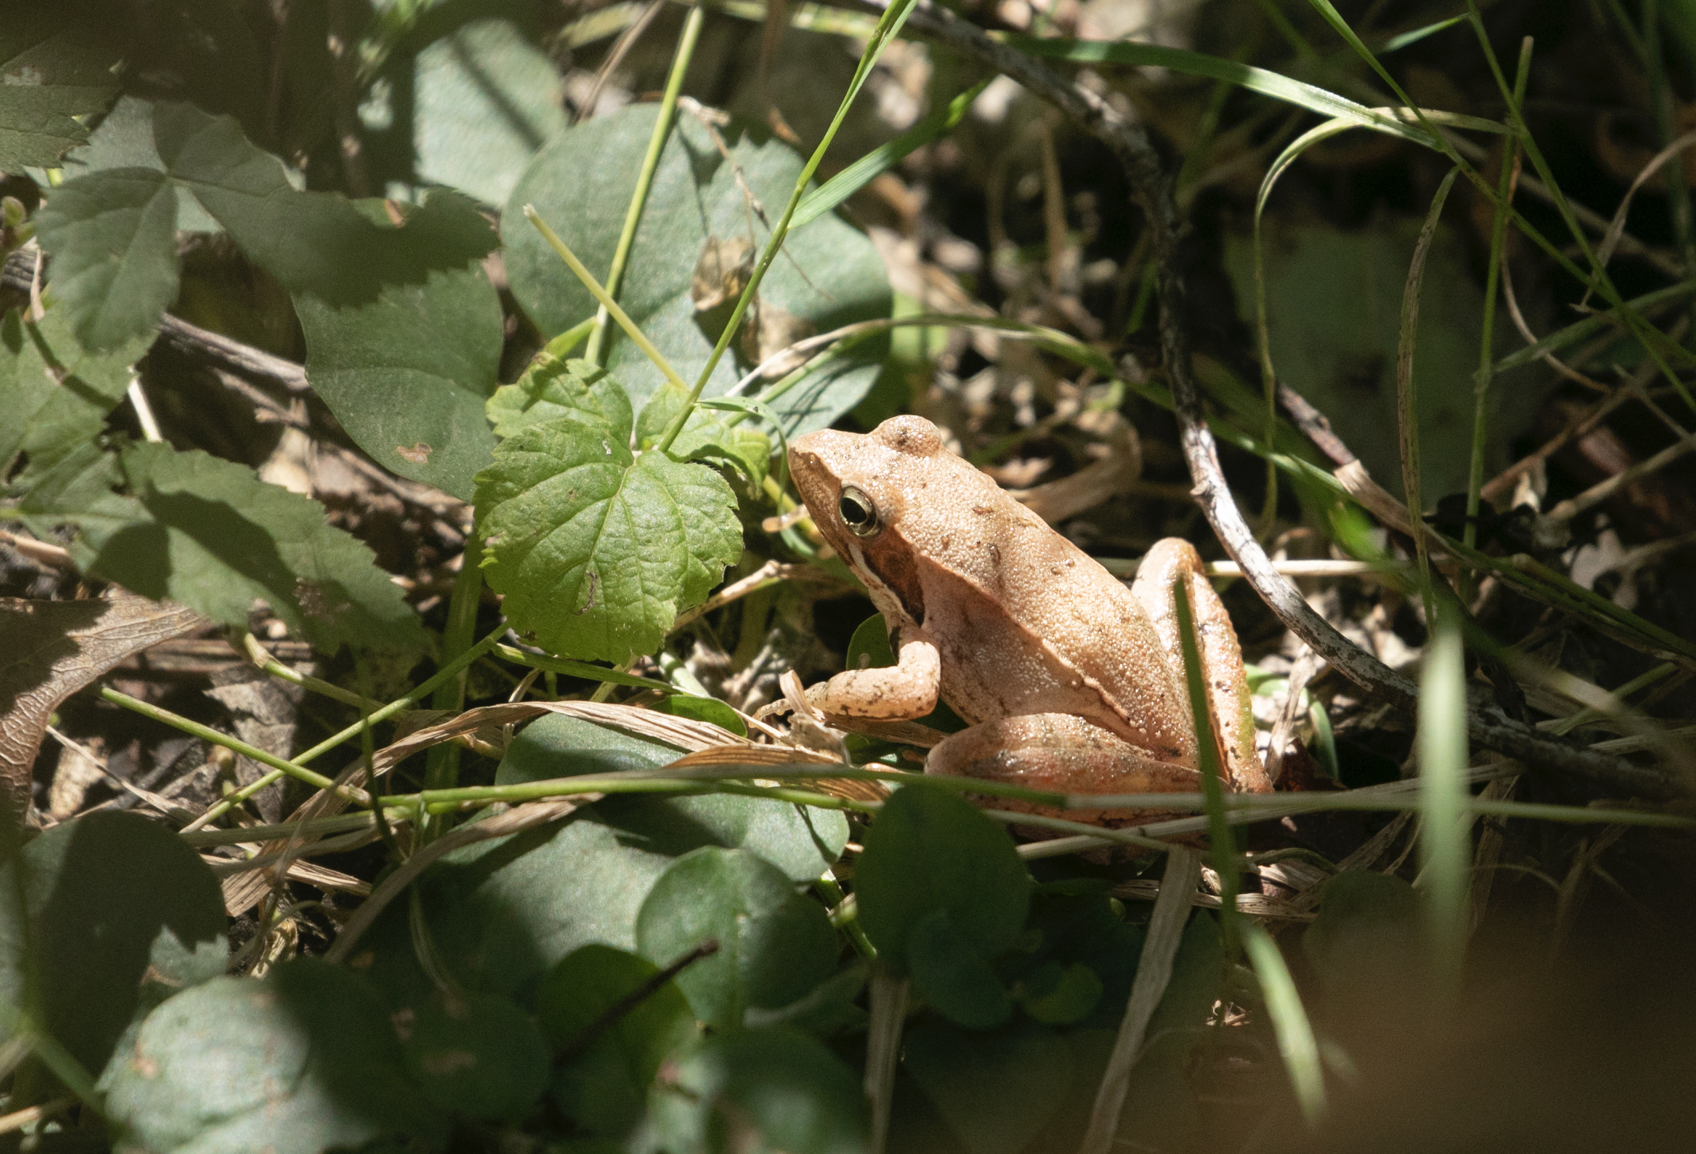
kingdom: Animalia
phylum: Chordata
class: Amphibia
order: Anura
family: Ranidae
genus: Rana
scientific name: Rana latastei
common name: Italian agile frog
